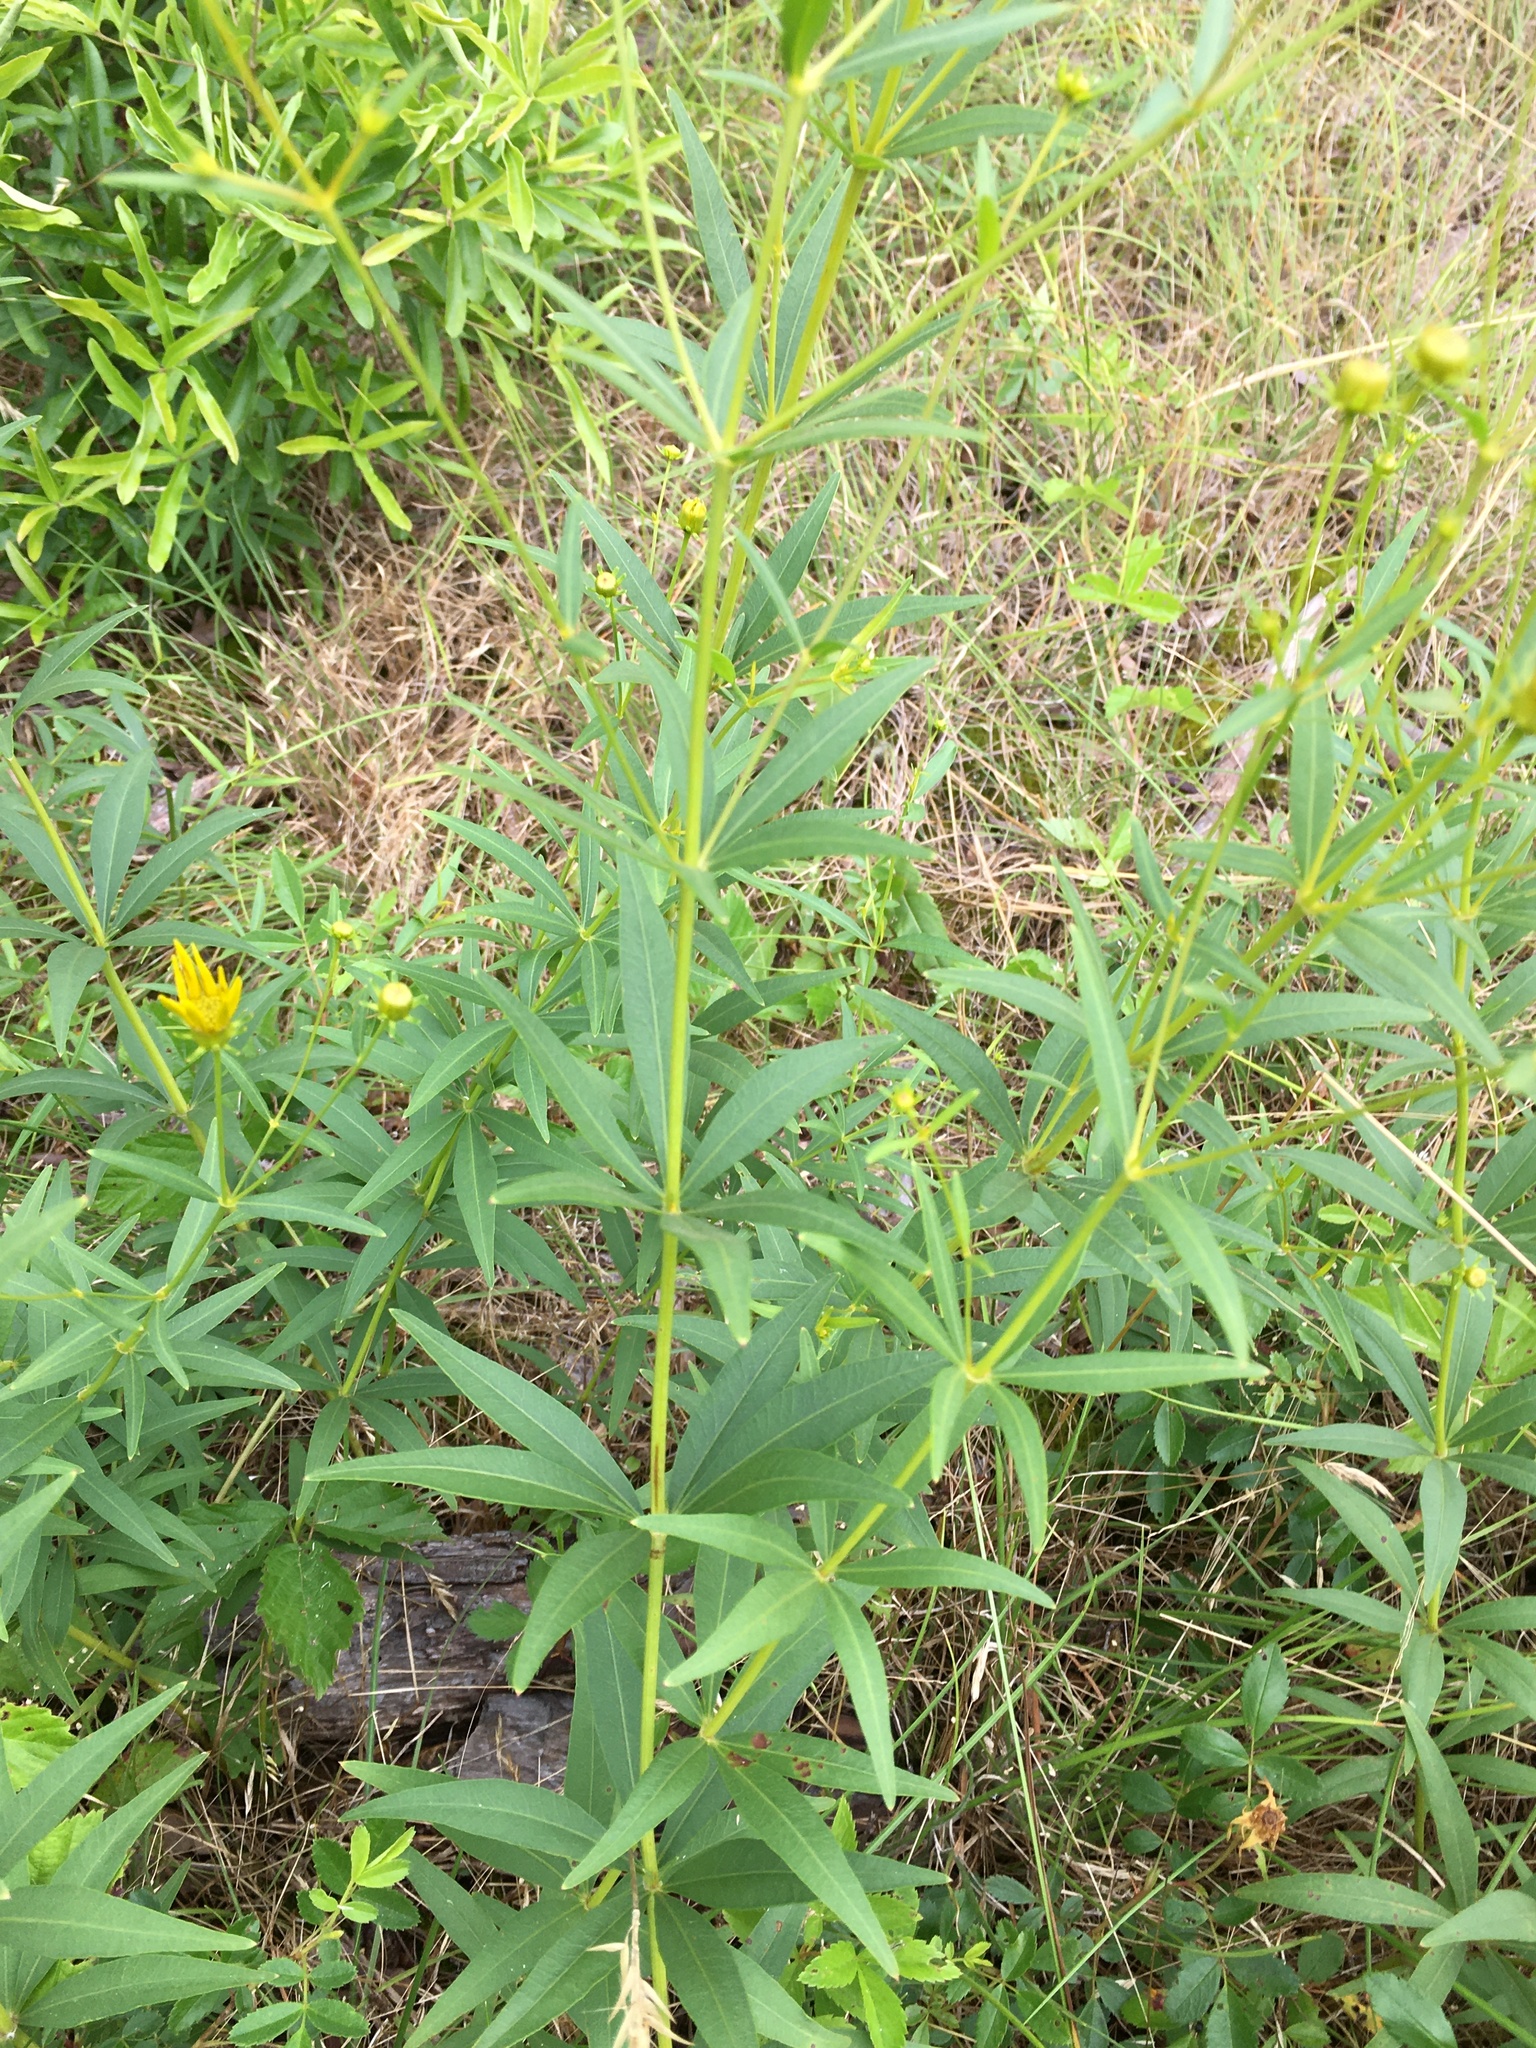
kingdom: Plantae
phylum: Tracheophyta
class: Magnoliopsida
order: Asterales
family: Asteraceae
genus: Coreopsis
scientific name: Coreopsis major
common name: Forest tickseed
